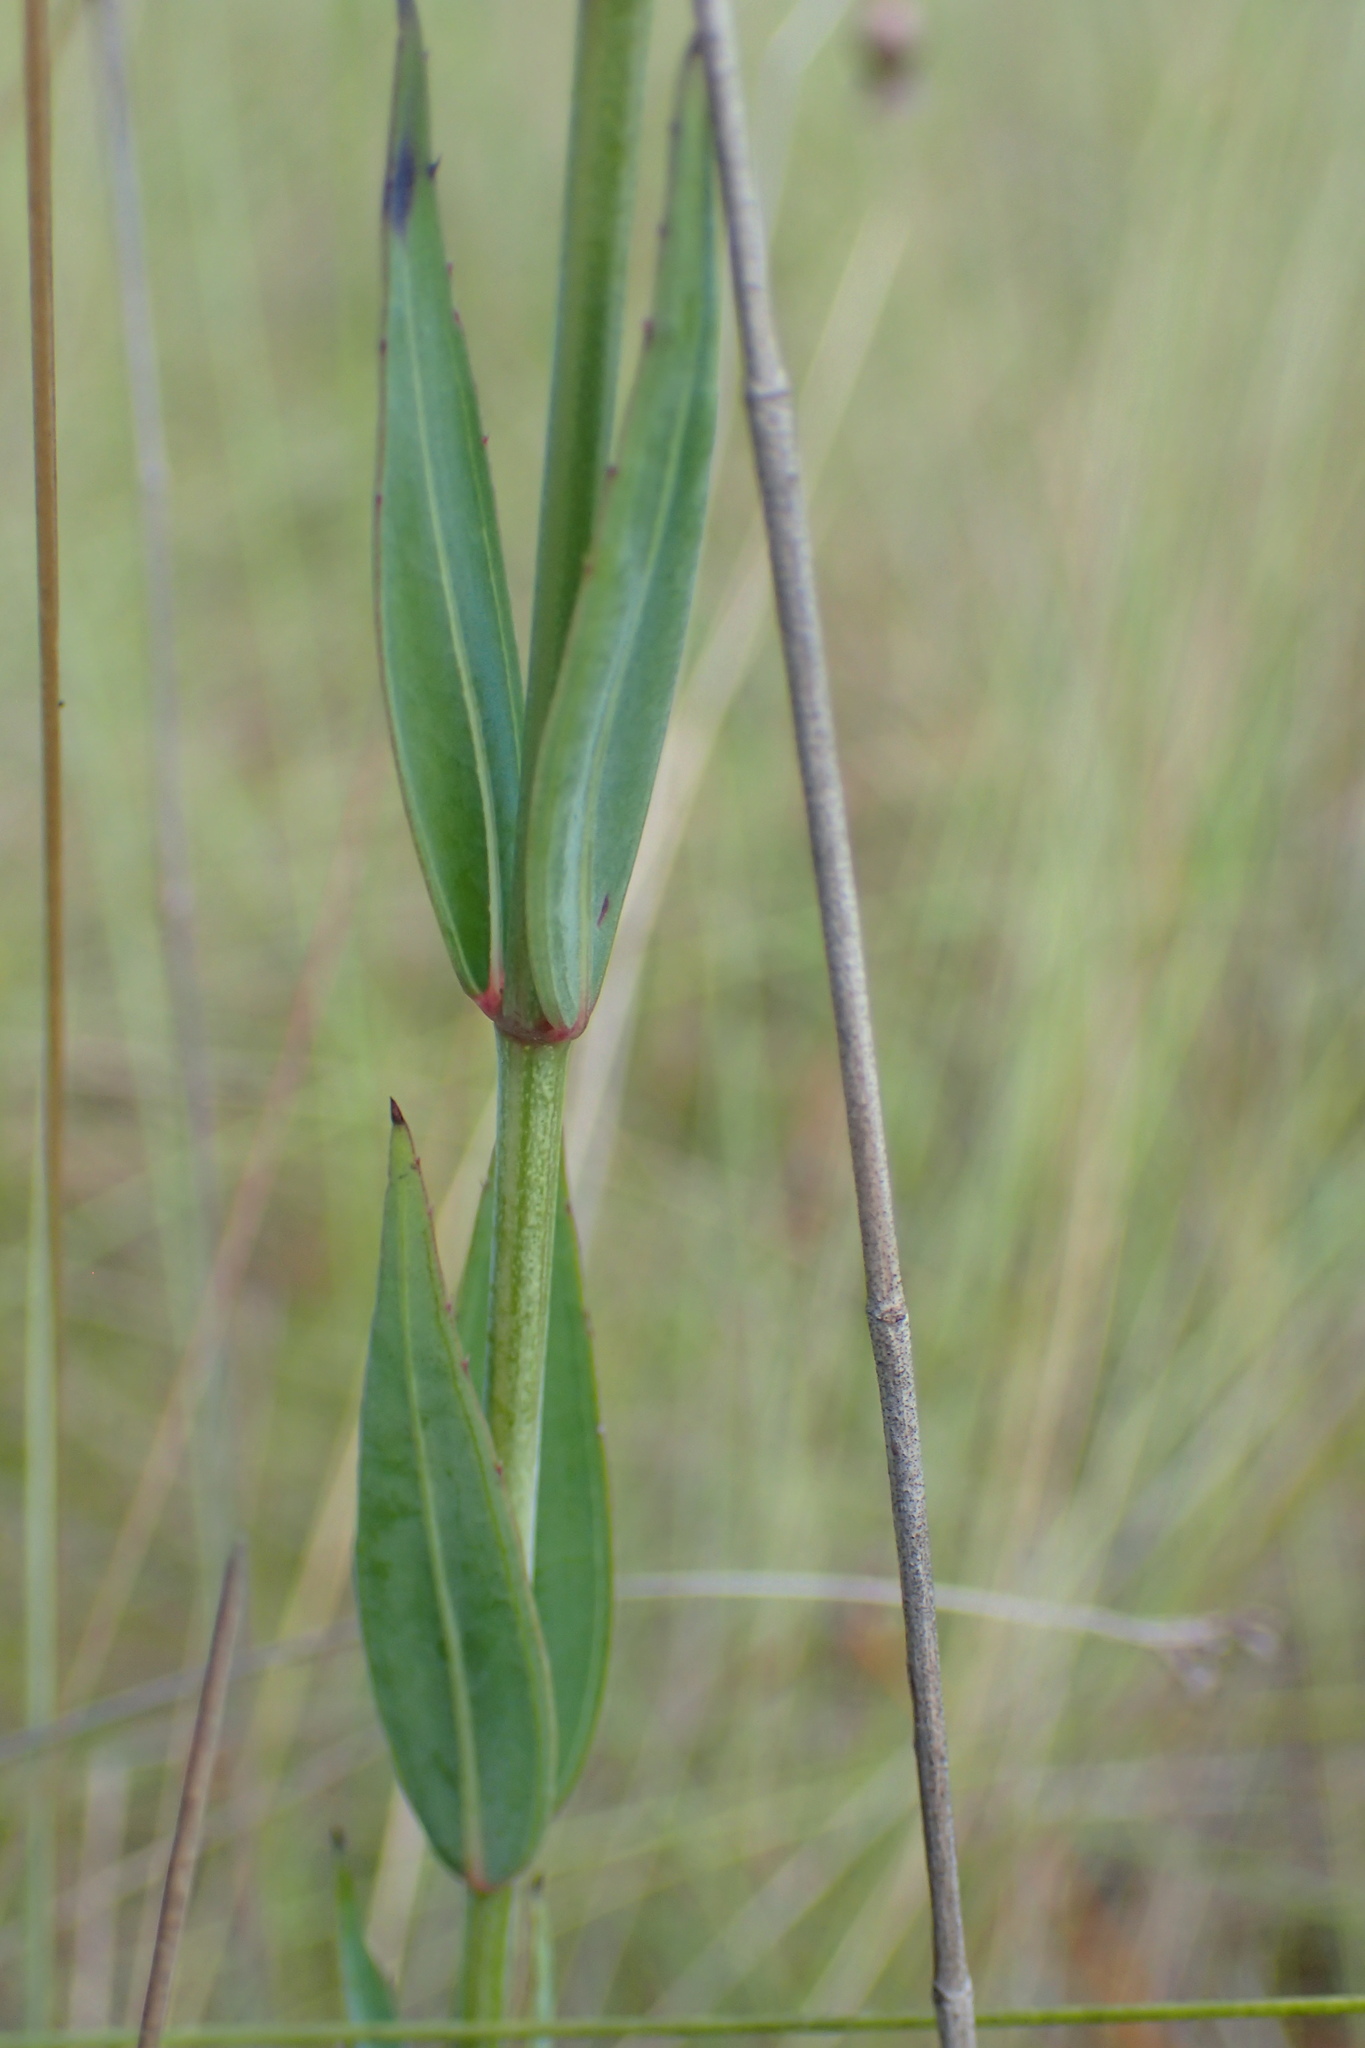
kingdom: Plantae
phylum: Tracheophyta
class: Magnoliopsida
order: Myrtales
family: Melastomataceae
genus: Rhexia
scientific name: Rhexia alifanus
